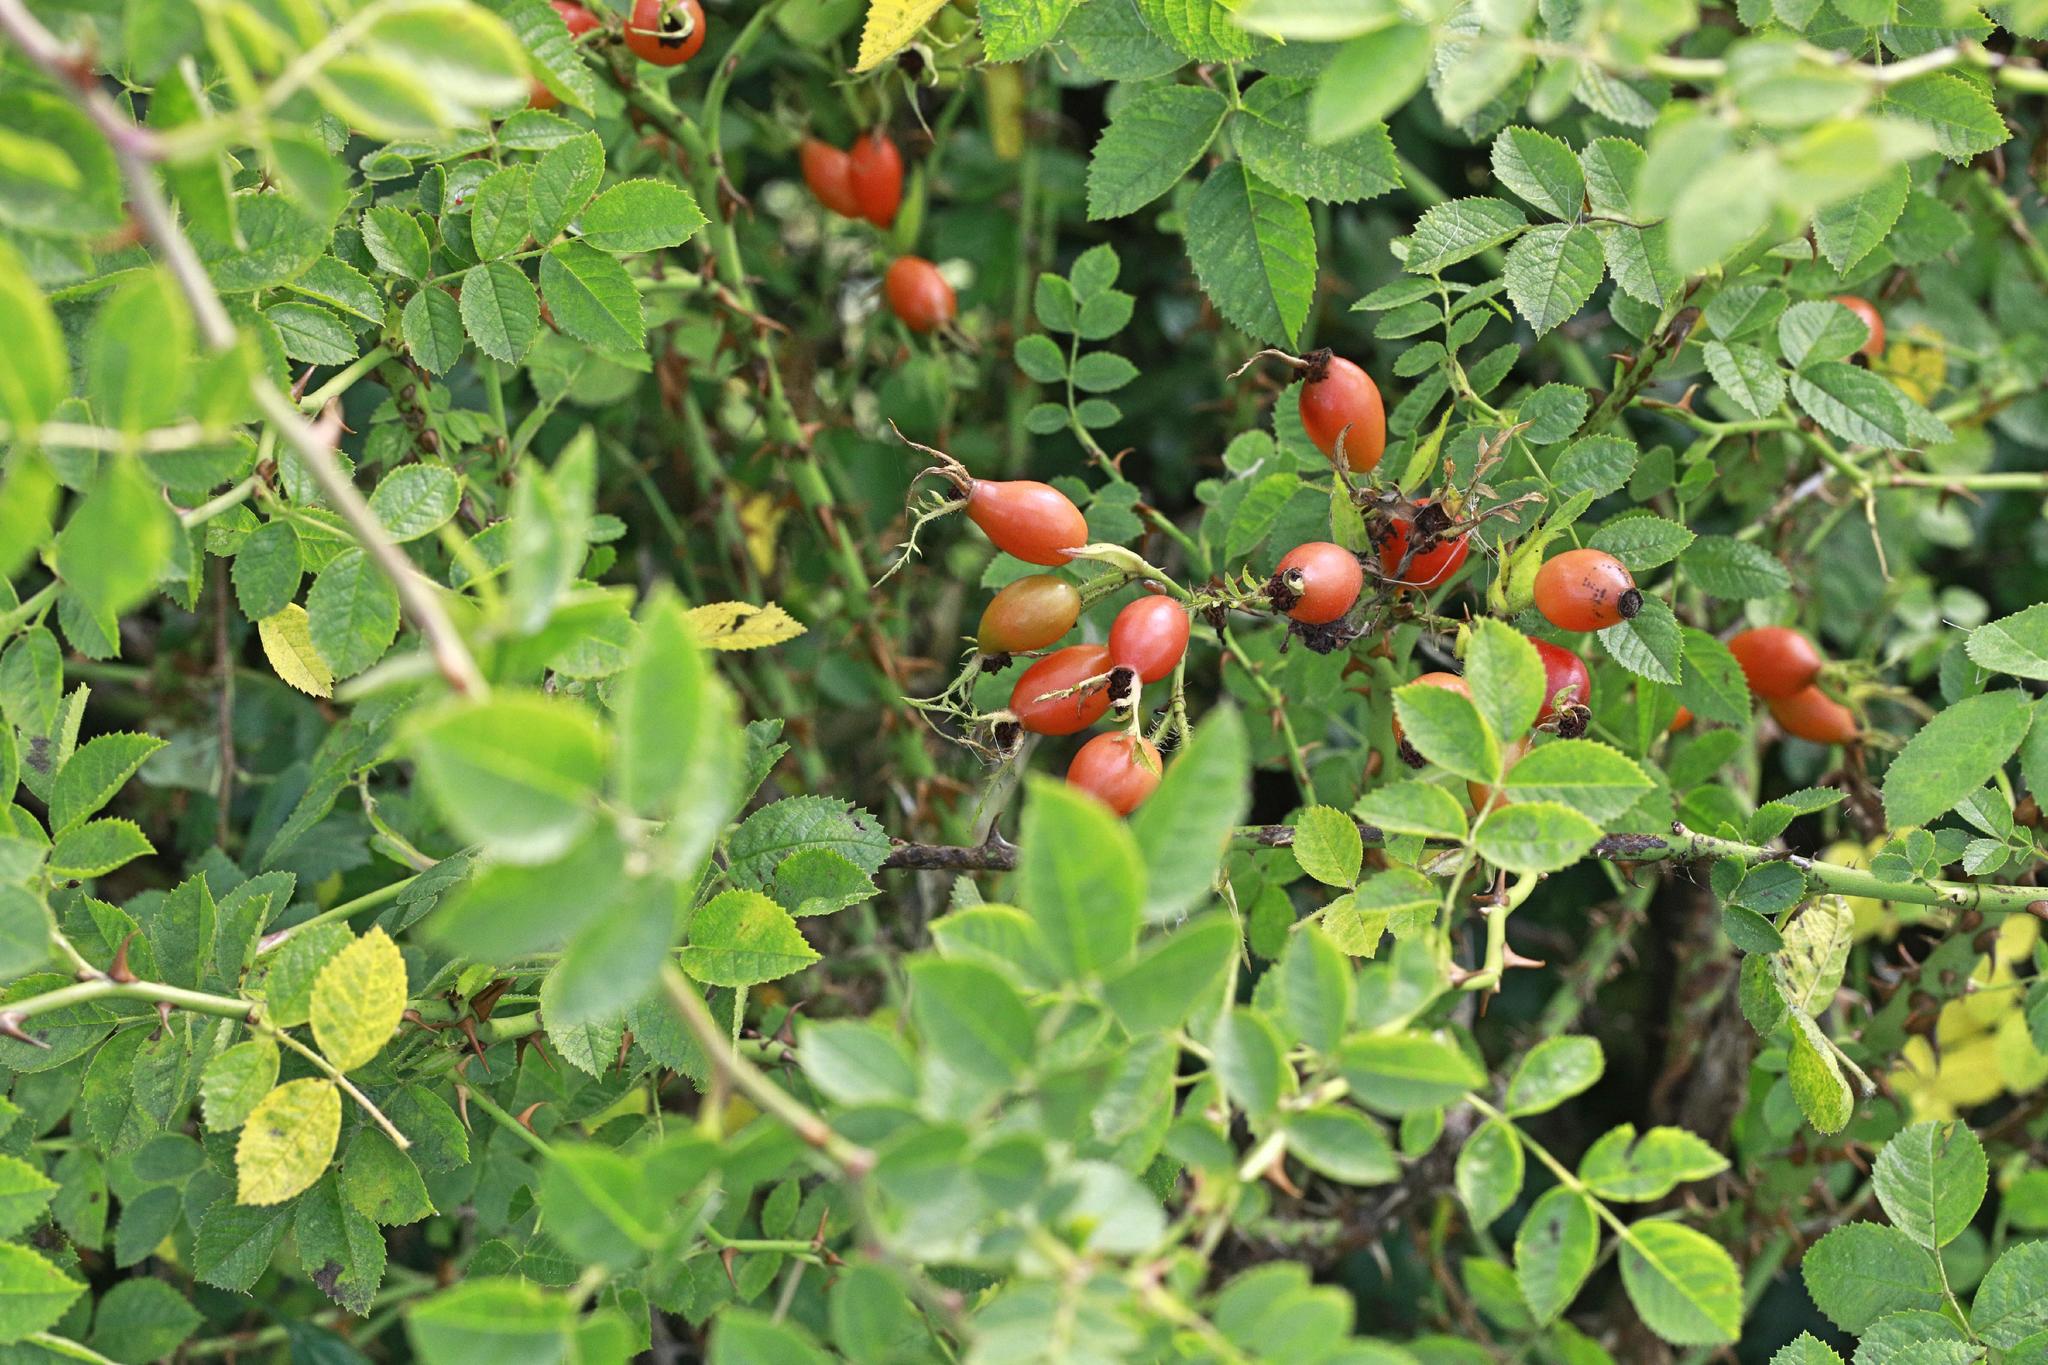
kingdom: Plantae
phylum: Tracheophyta
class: Magnoliopsida
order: Rosales
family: Rosaceae
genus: Rosa
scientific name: Rosa canina
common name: Dog rose
